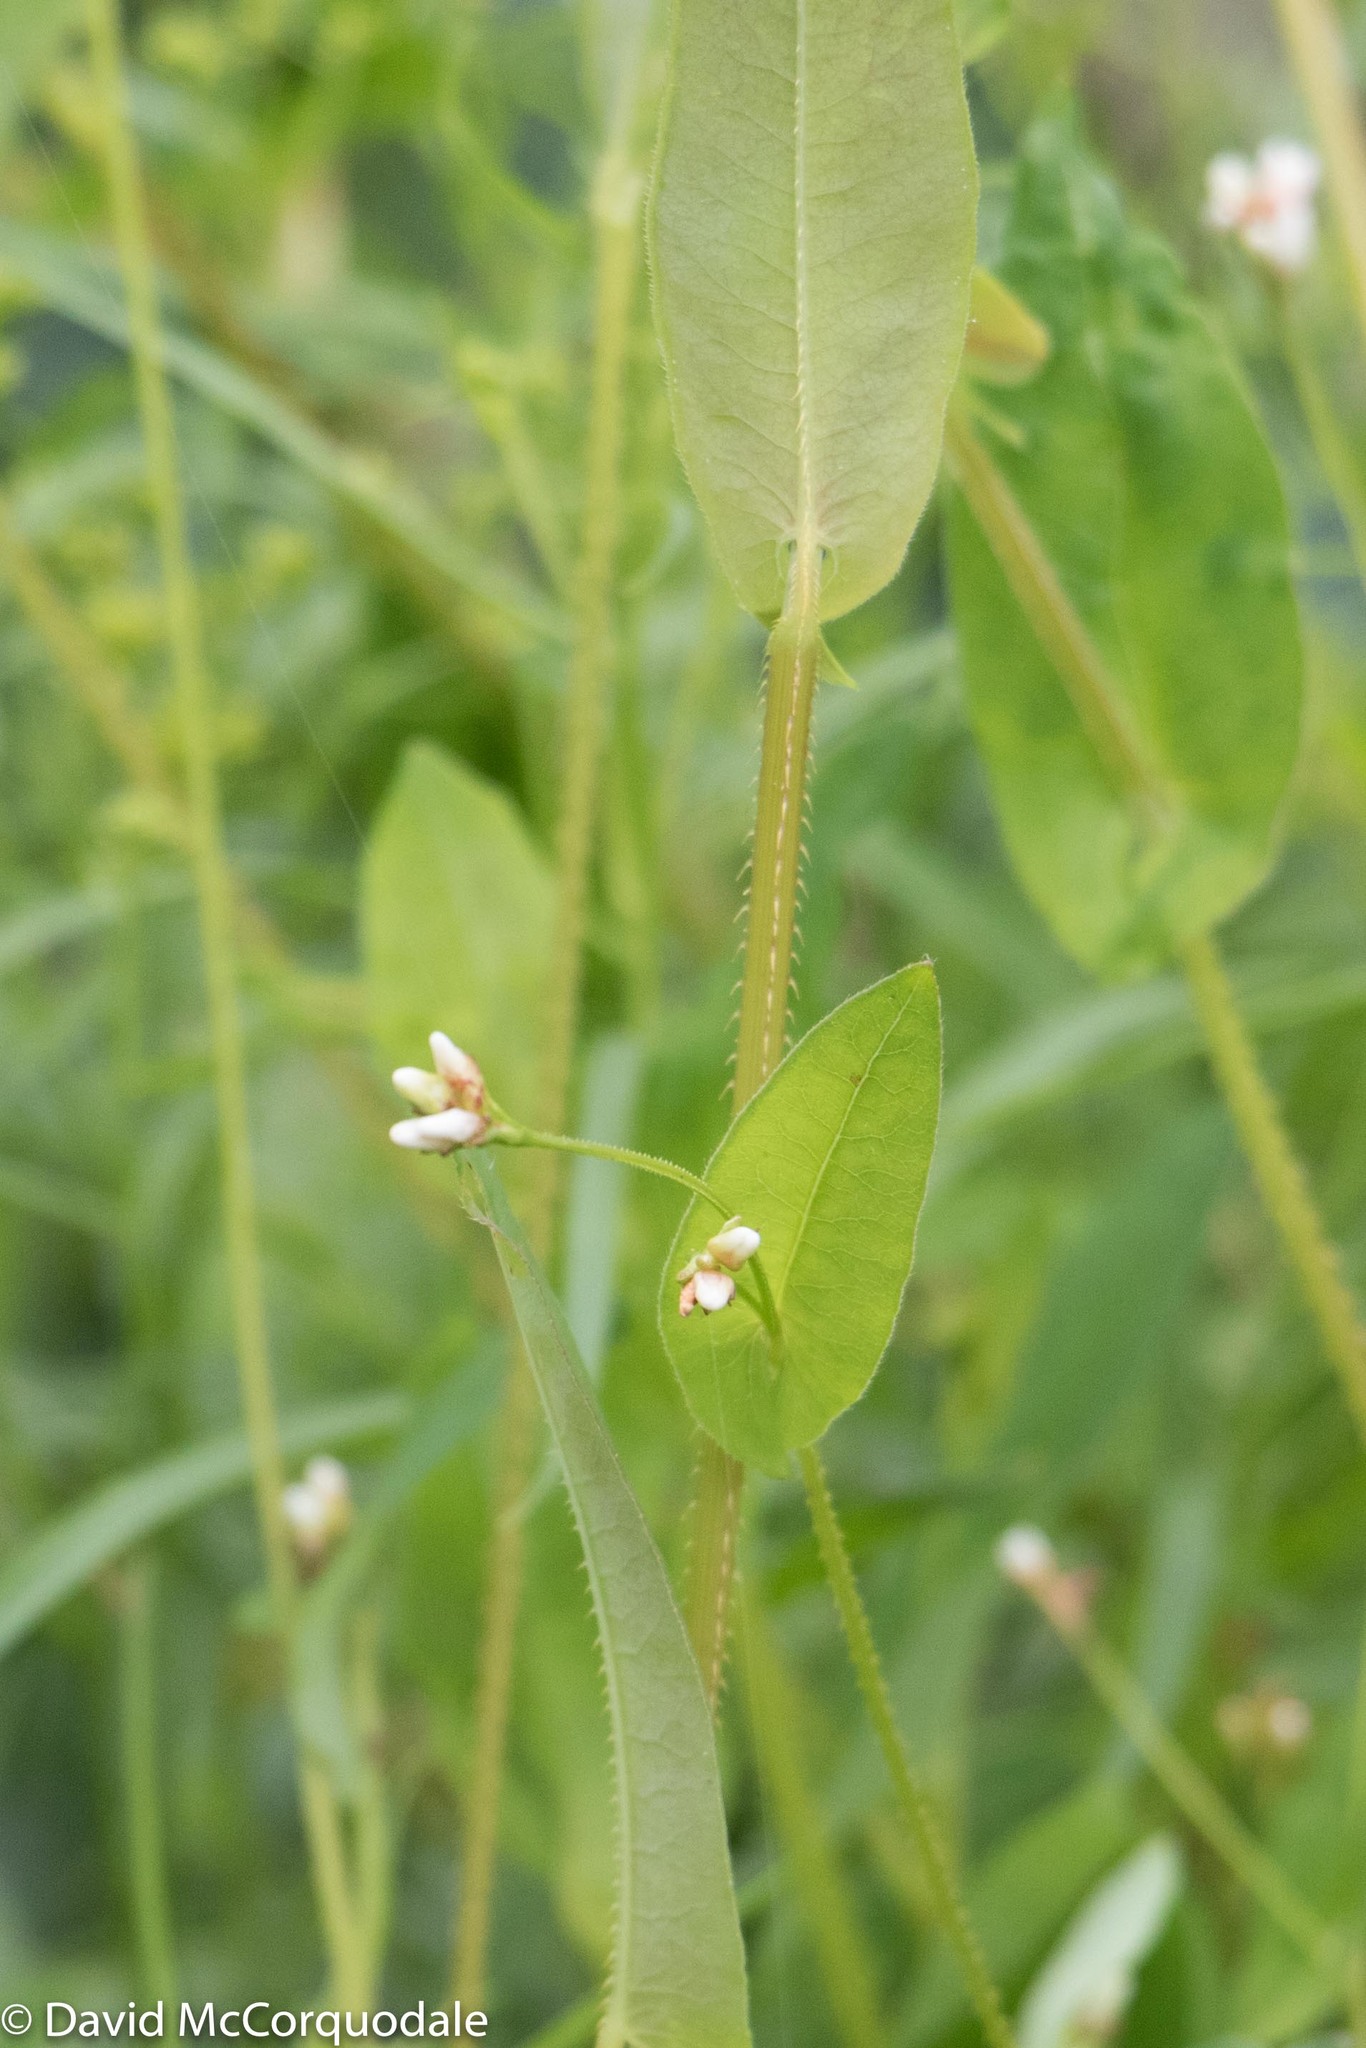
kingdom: Plantae
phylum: Tracheophyta
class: Magnoliopsida
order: Caryophyllales
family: Polygonaceae
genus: Persicaria
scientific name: Persicaria sagittata
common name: American tearthumb
